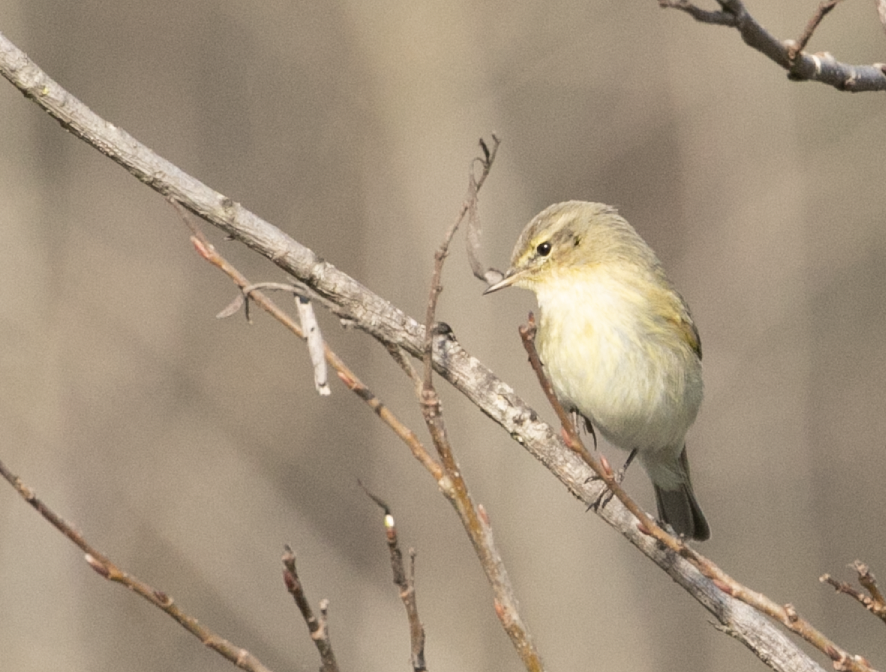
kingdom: Animalia
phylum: Chordata
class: Aves
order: Passeriformes
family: Phylloscopidae
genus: Phylloscopus
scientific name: Phylloscopus collybita
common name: Common chiffchaff
